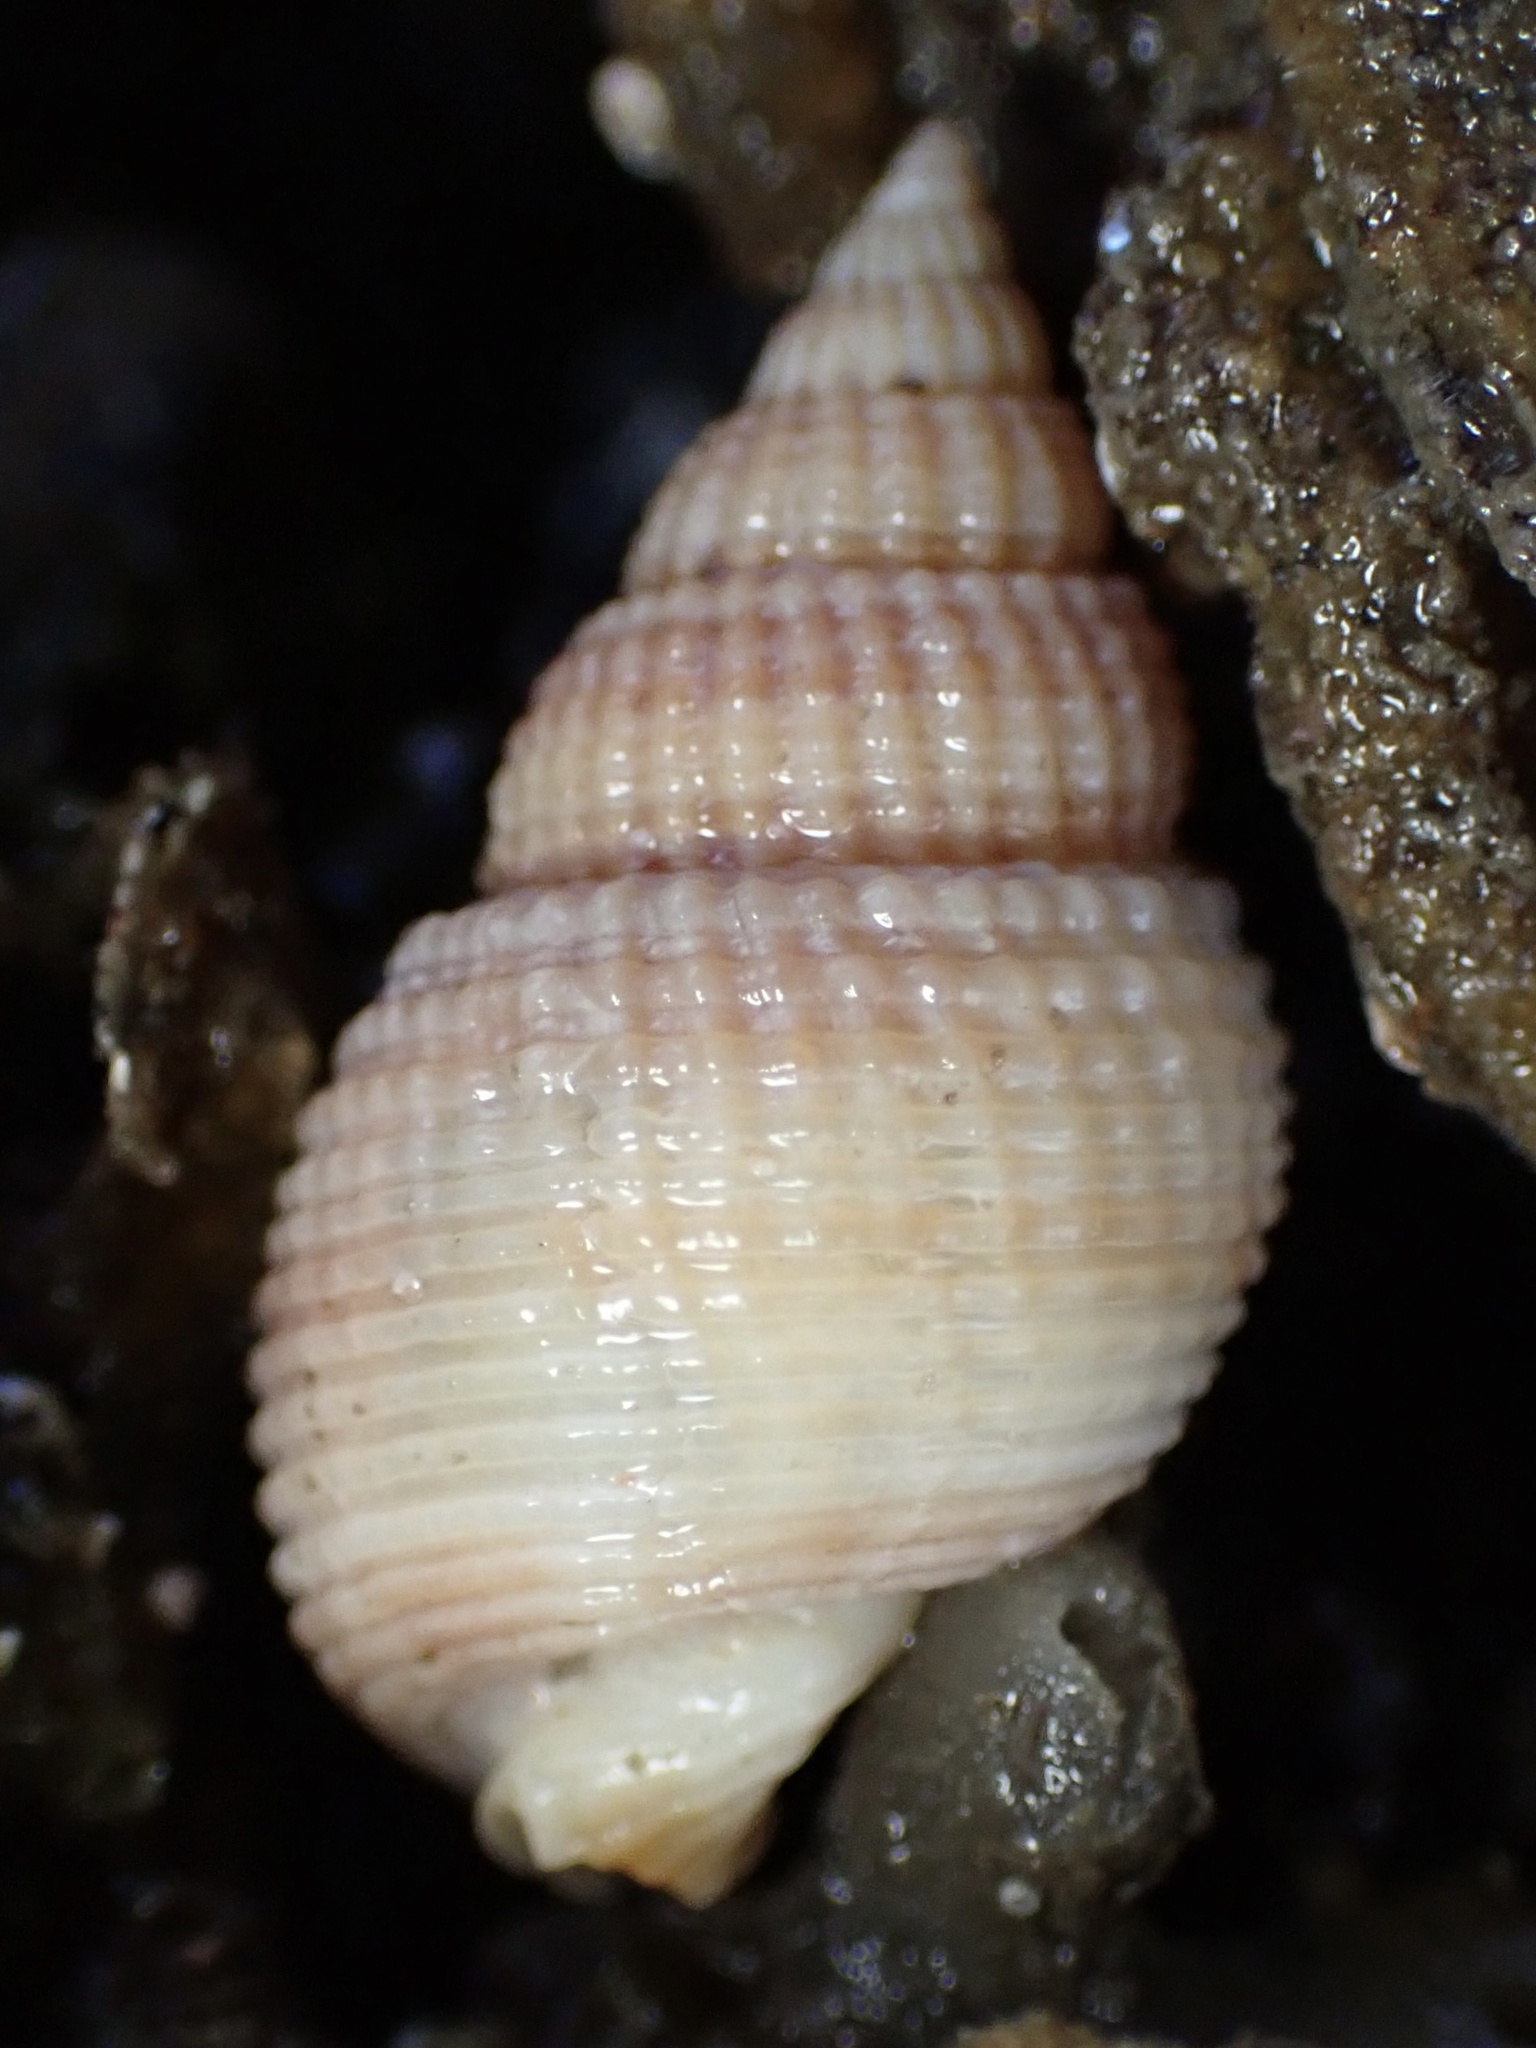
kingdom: Animalia
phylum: Mollusca
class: Gastropoda
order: Neogastropoda
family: Nassariidae
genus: Caesia
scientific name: Caesia perpinguis
